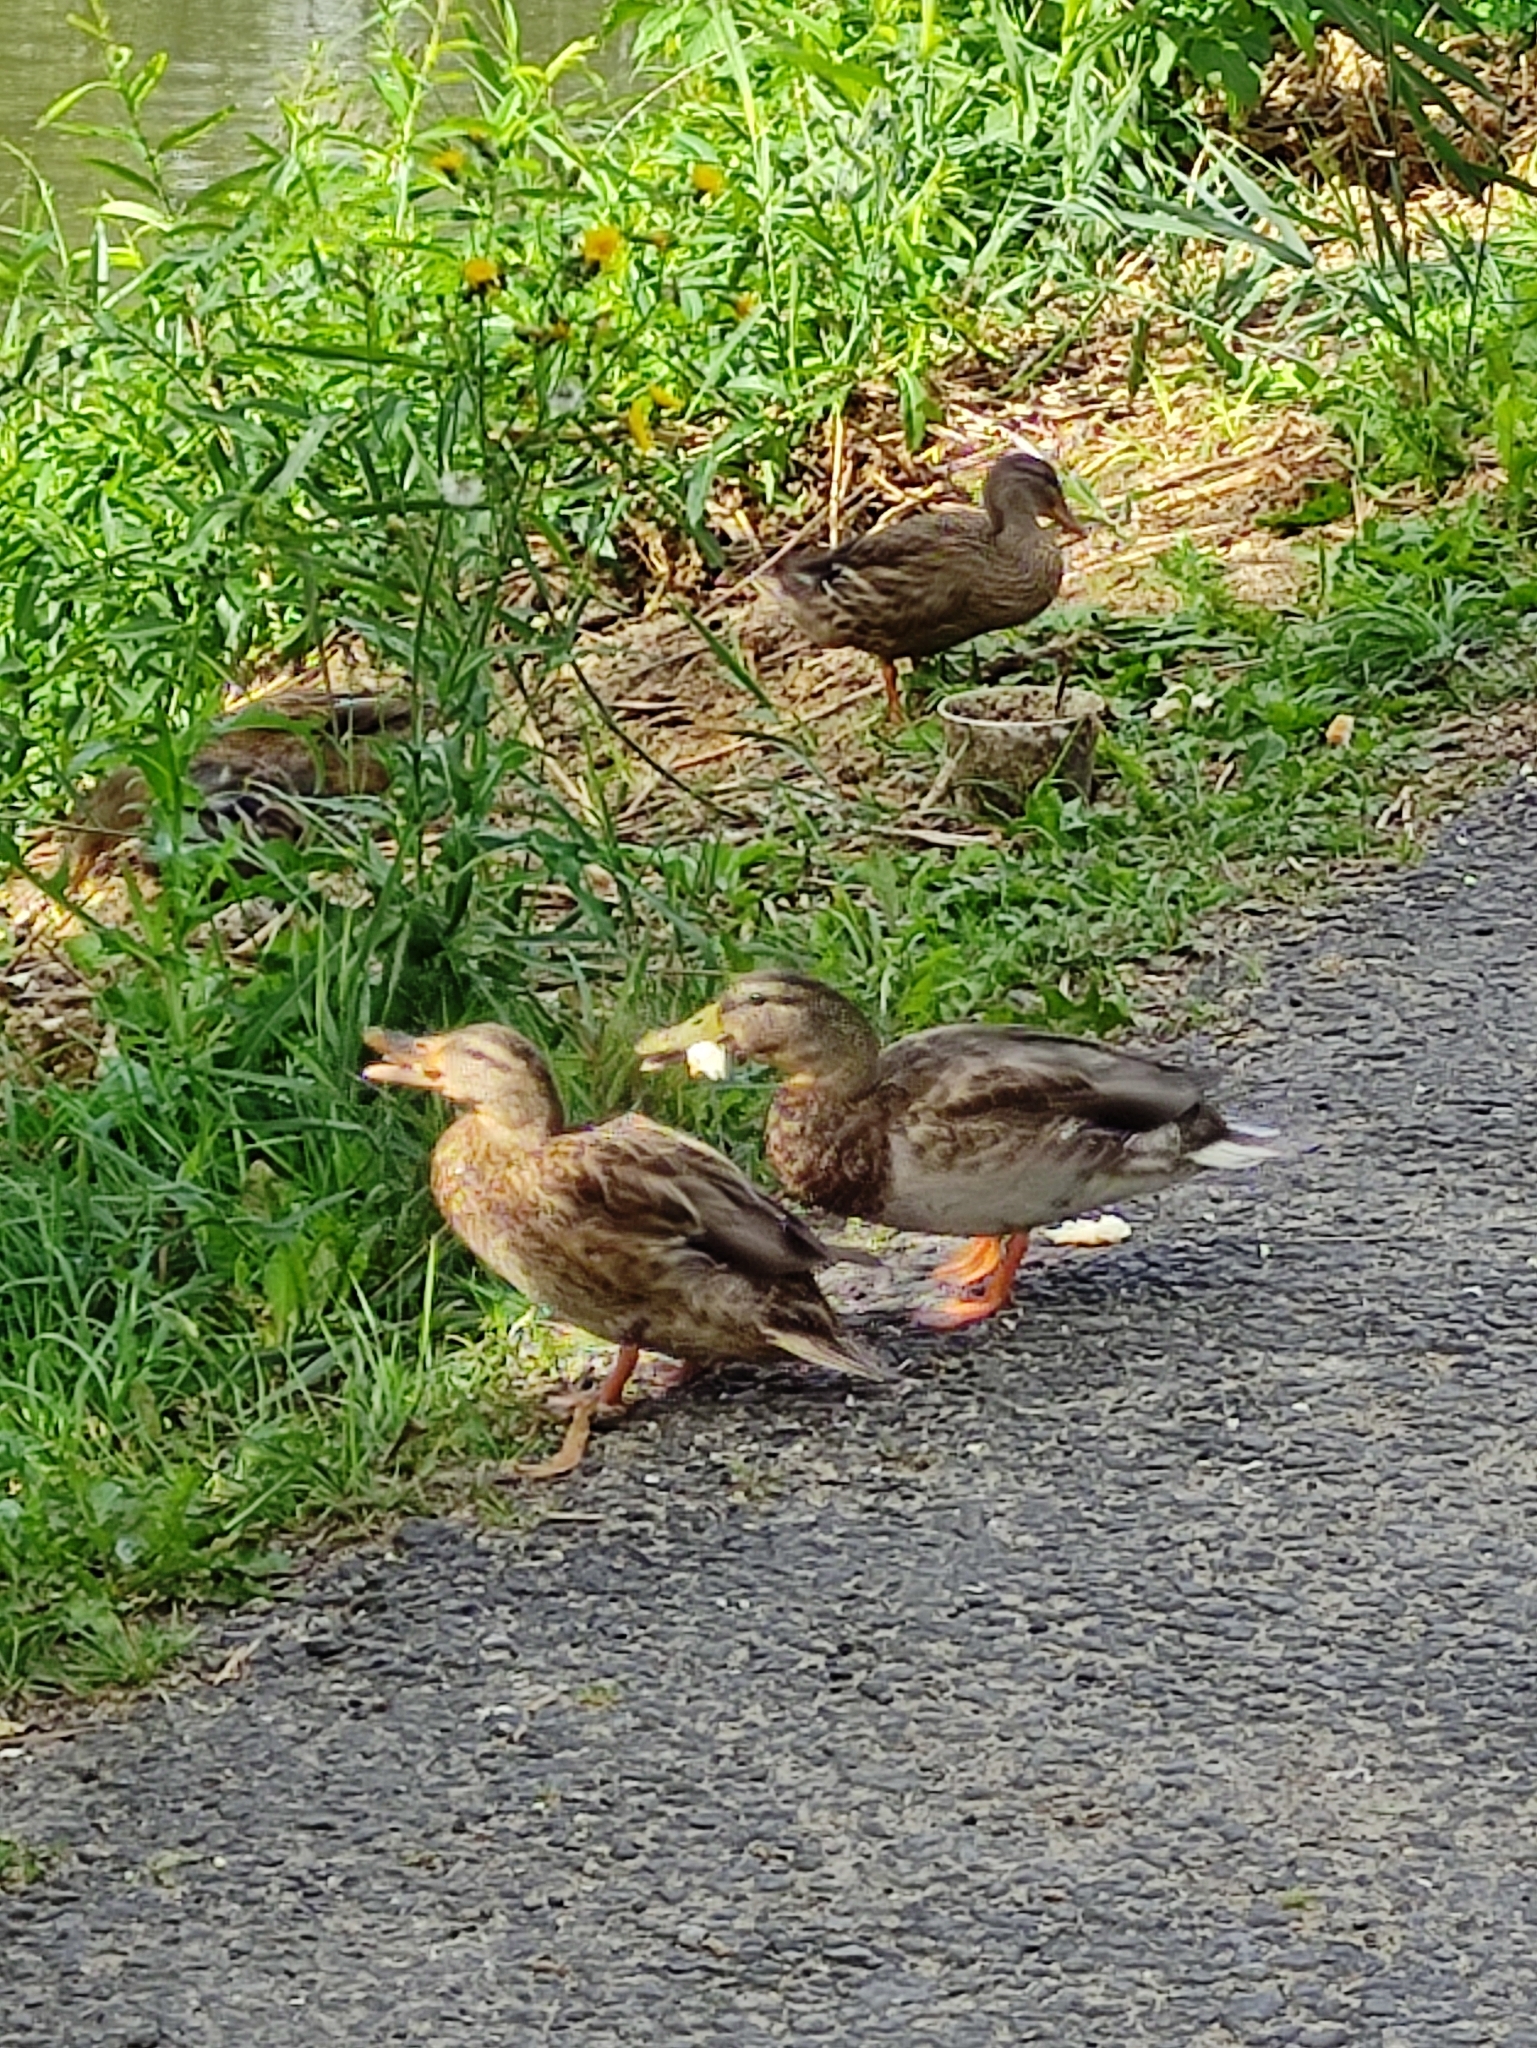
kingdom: Animalia
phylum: Chordata
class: Aves
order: Anseriformes
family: Anatidae
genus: Anas
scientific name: Anas platyrhynchos
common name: Mallard
